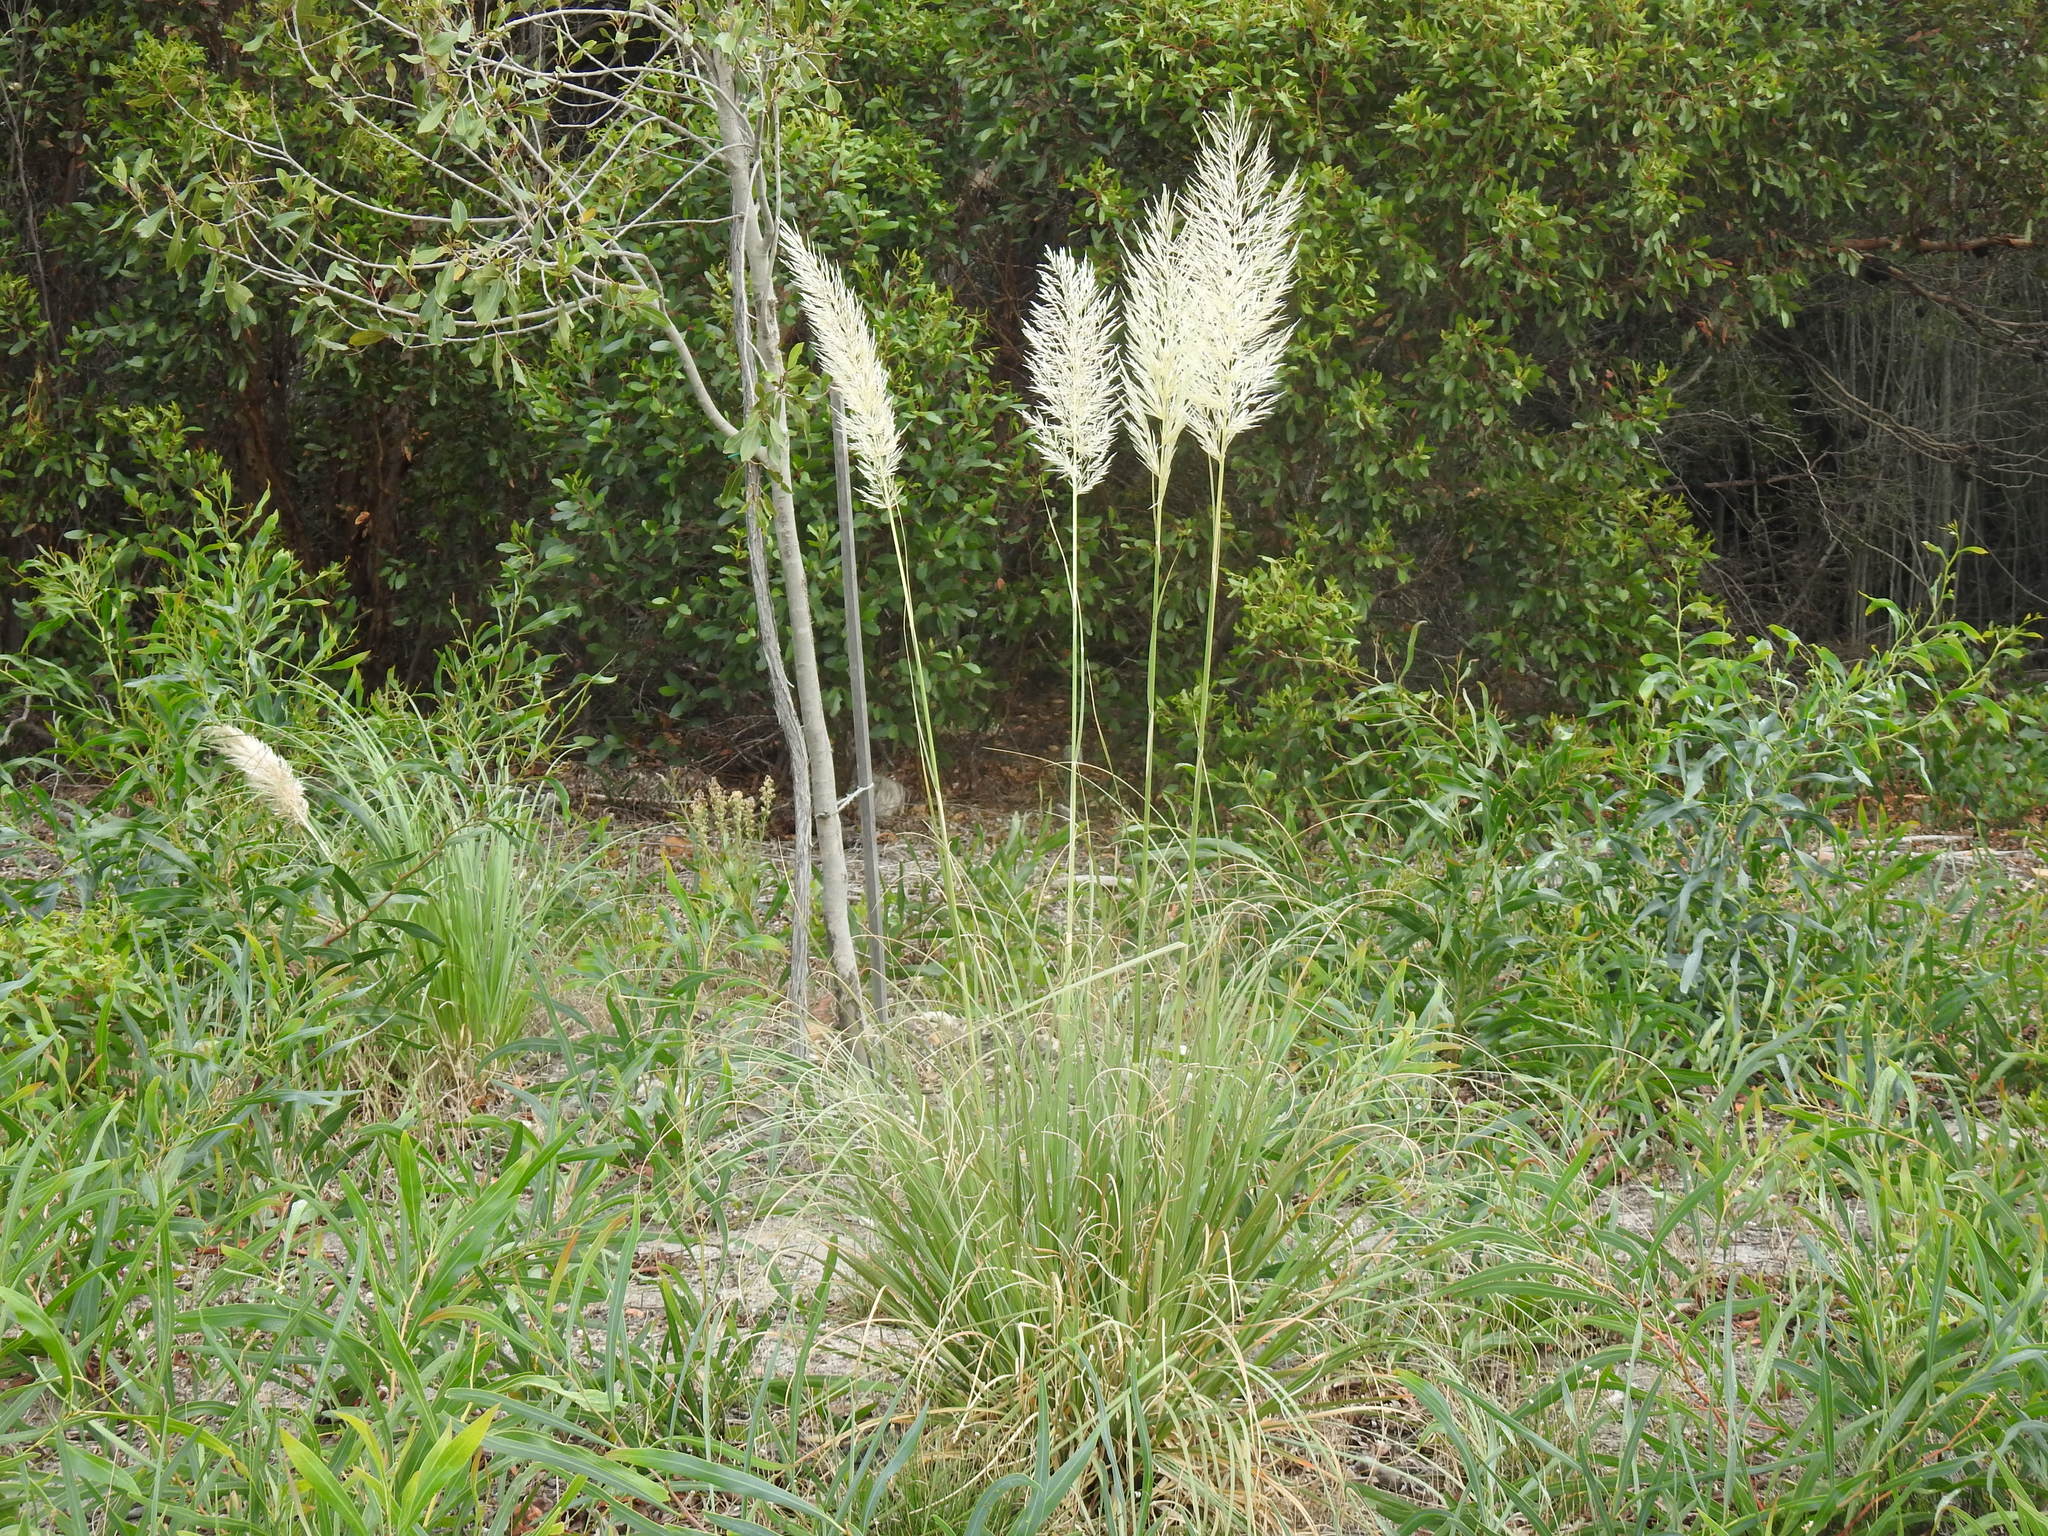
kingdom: Plantae
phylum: Tracheophyta
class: Liliopsida
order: Poales
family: Poaceae
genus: Cortaderia
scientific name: Cortaderia selloana
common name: Uruguayan pampas grass
